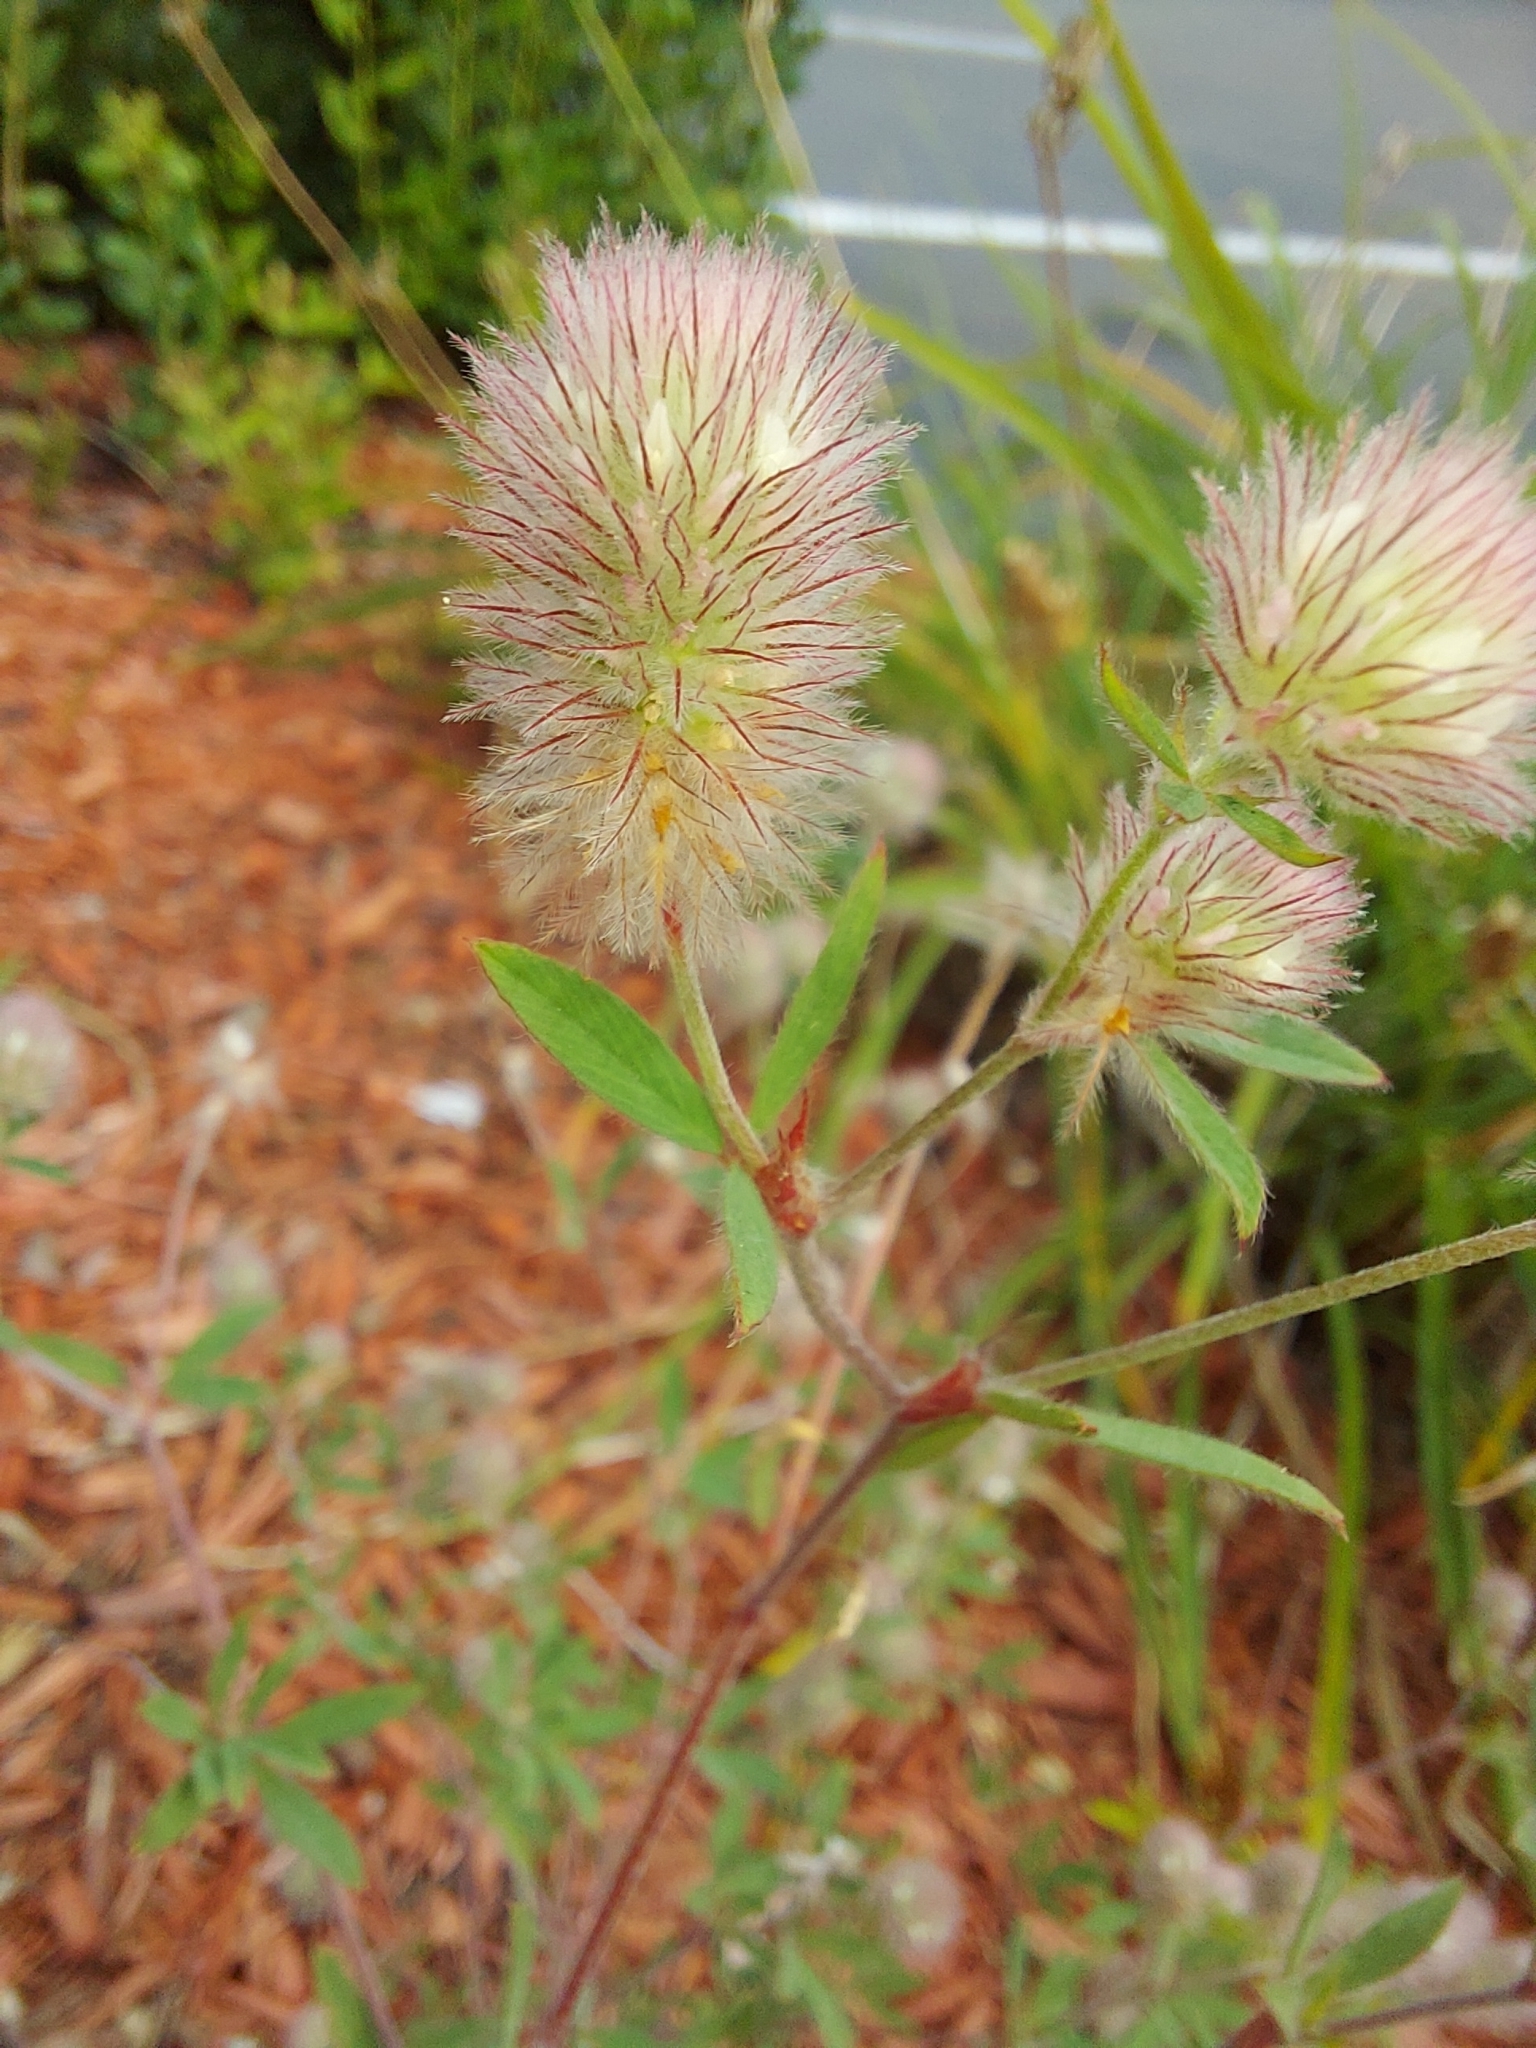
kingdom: Plantae
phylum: Tracheophyta
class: Magnoliopsida
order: Fabales
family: Fabaceae
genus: Trifolium
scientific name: Trifolium arvense
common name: Hare's-foot clover
